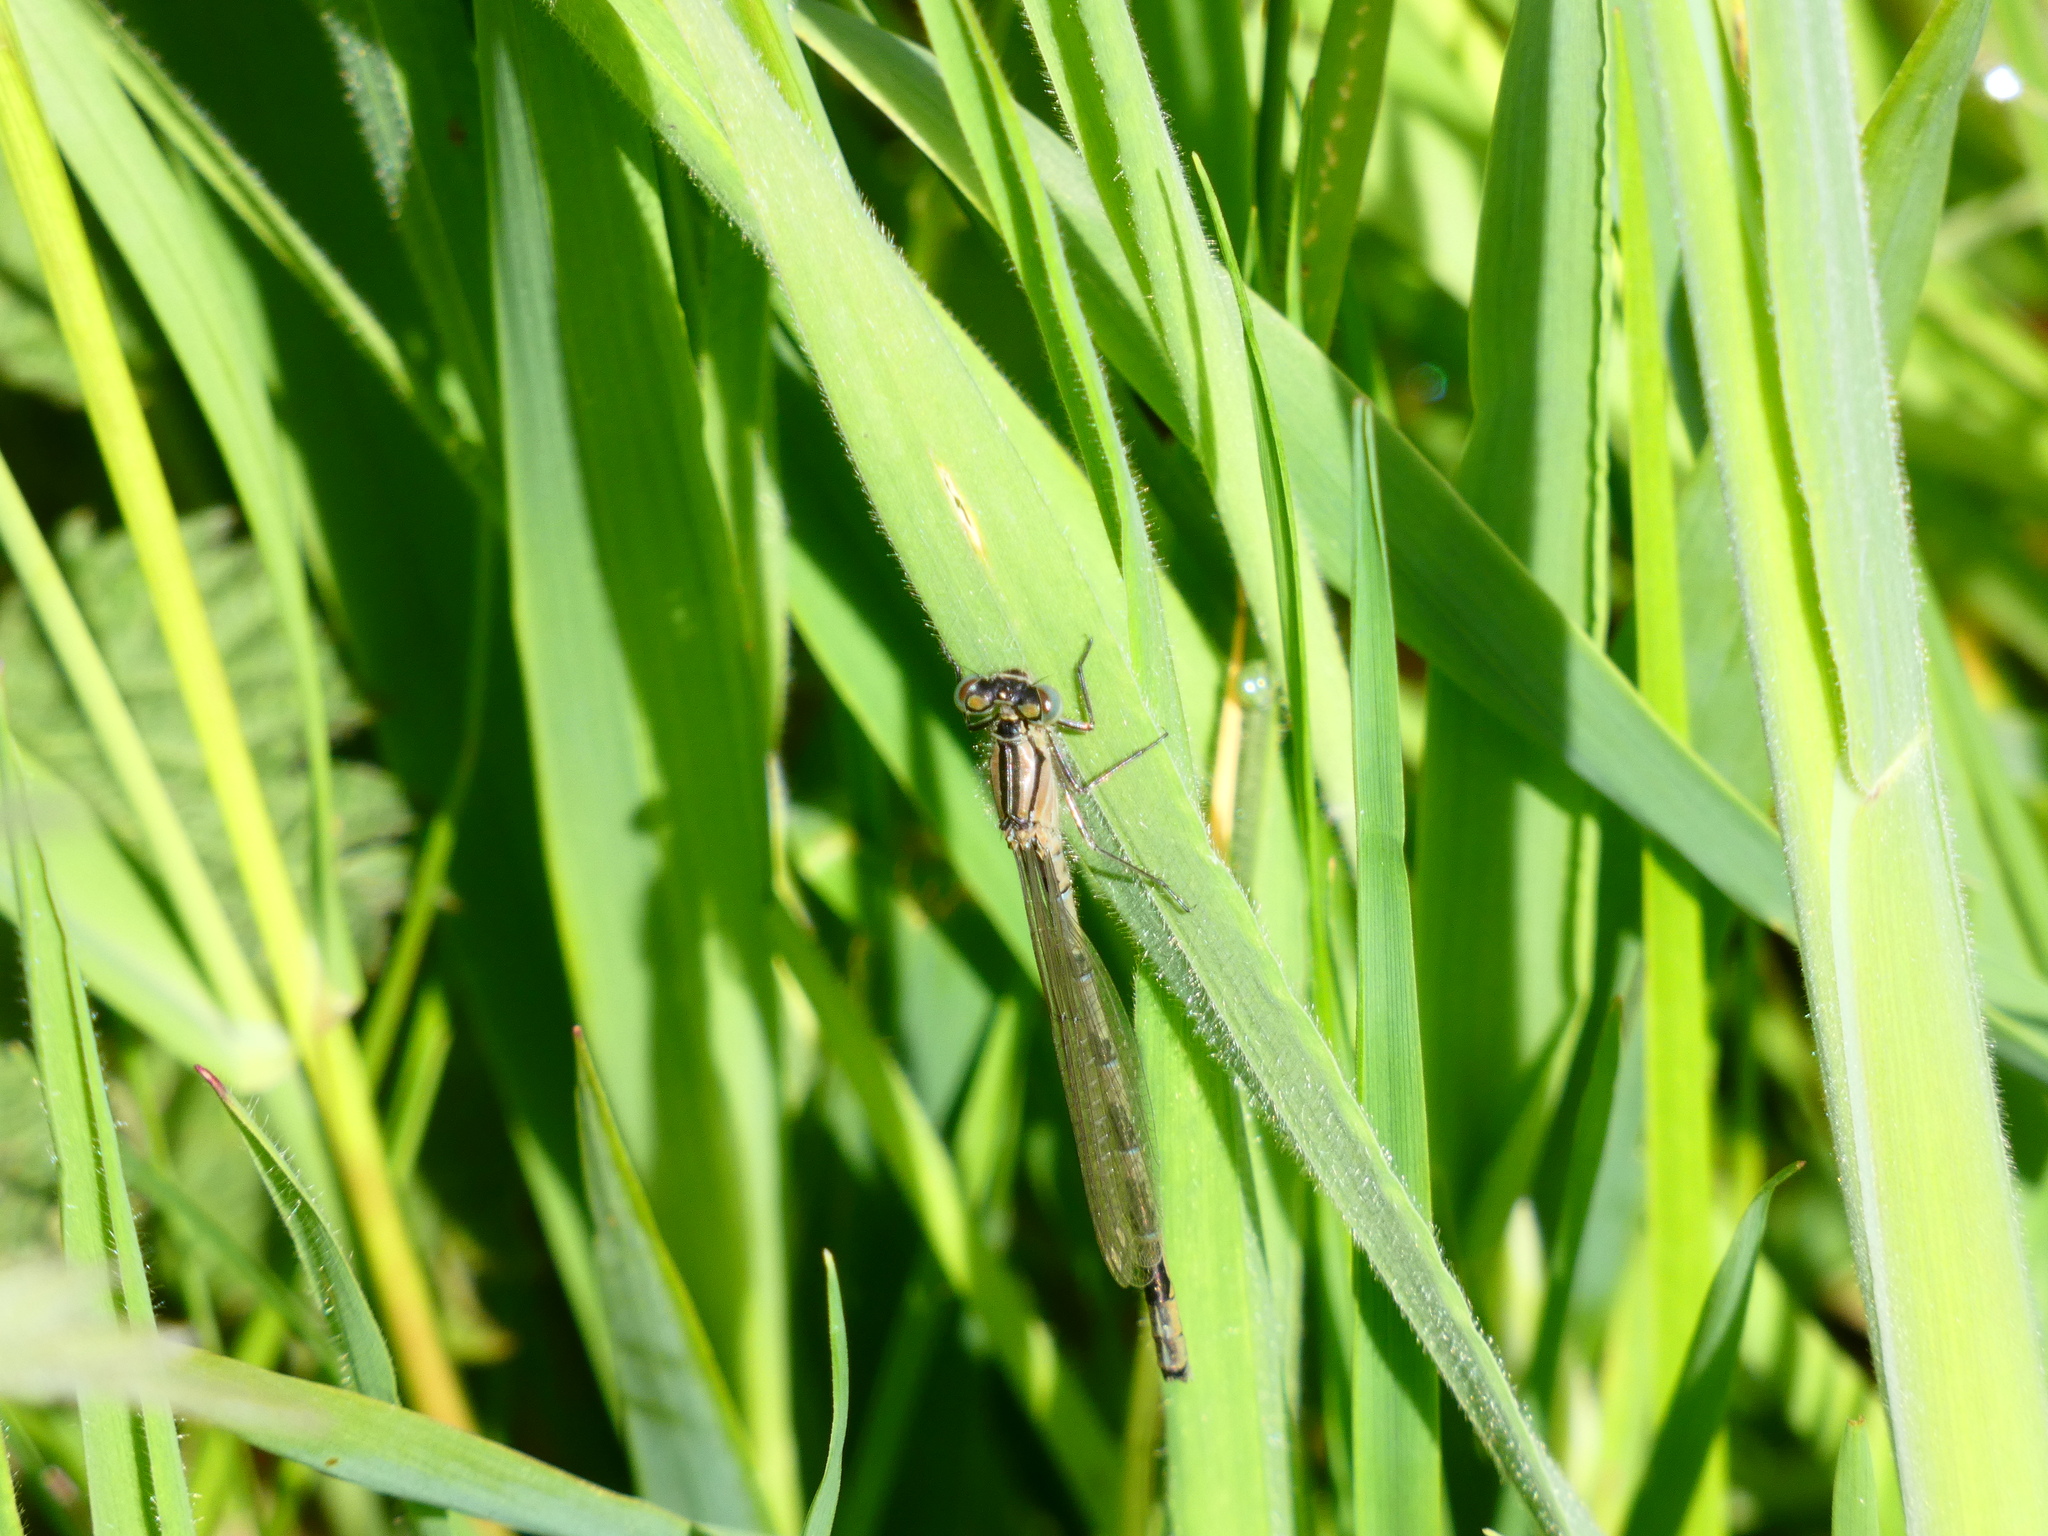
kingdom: Animalia
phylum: Arthropoda
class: Insecta
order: Odonata
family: Coenagrionidae
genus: Enallagma
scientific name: Enallagma cyathigerum
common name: Common blue damselfly
